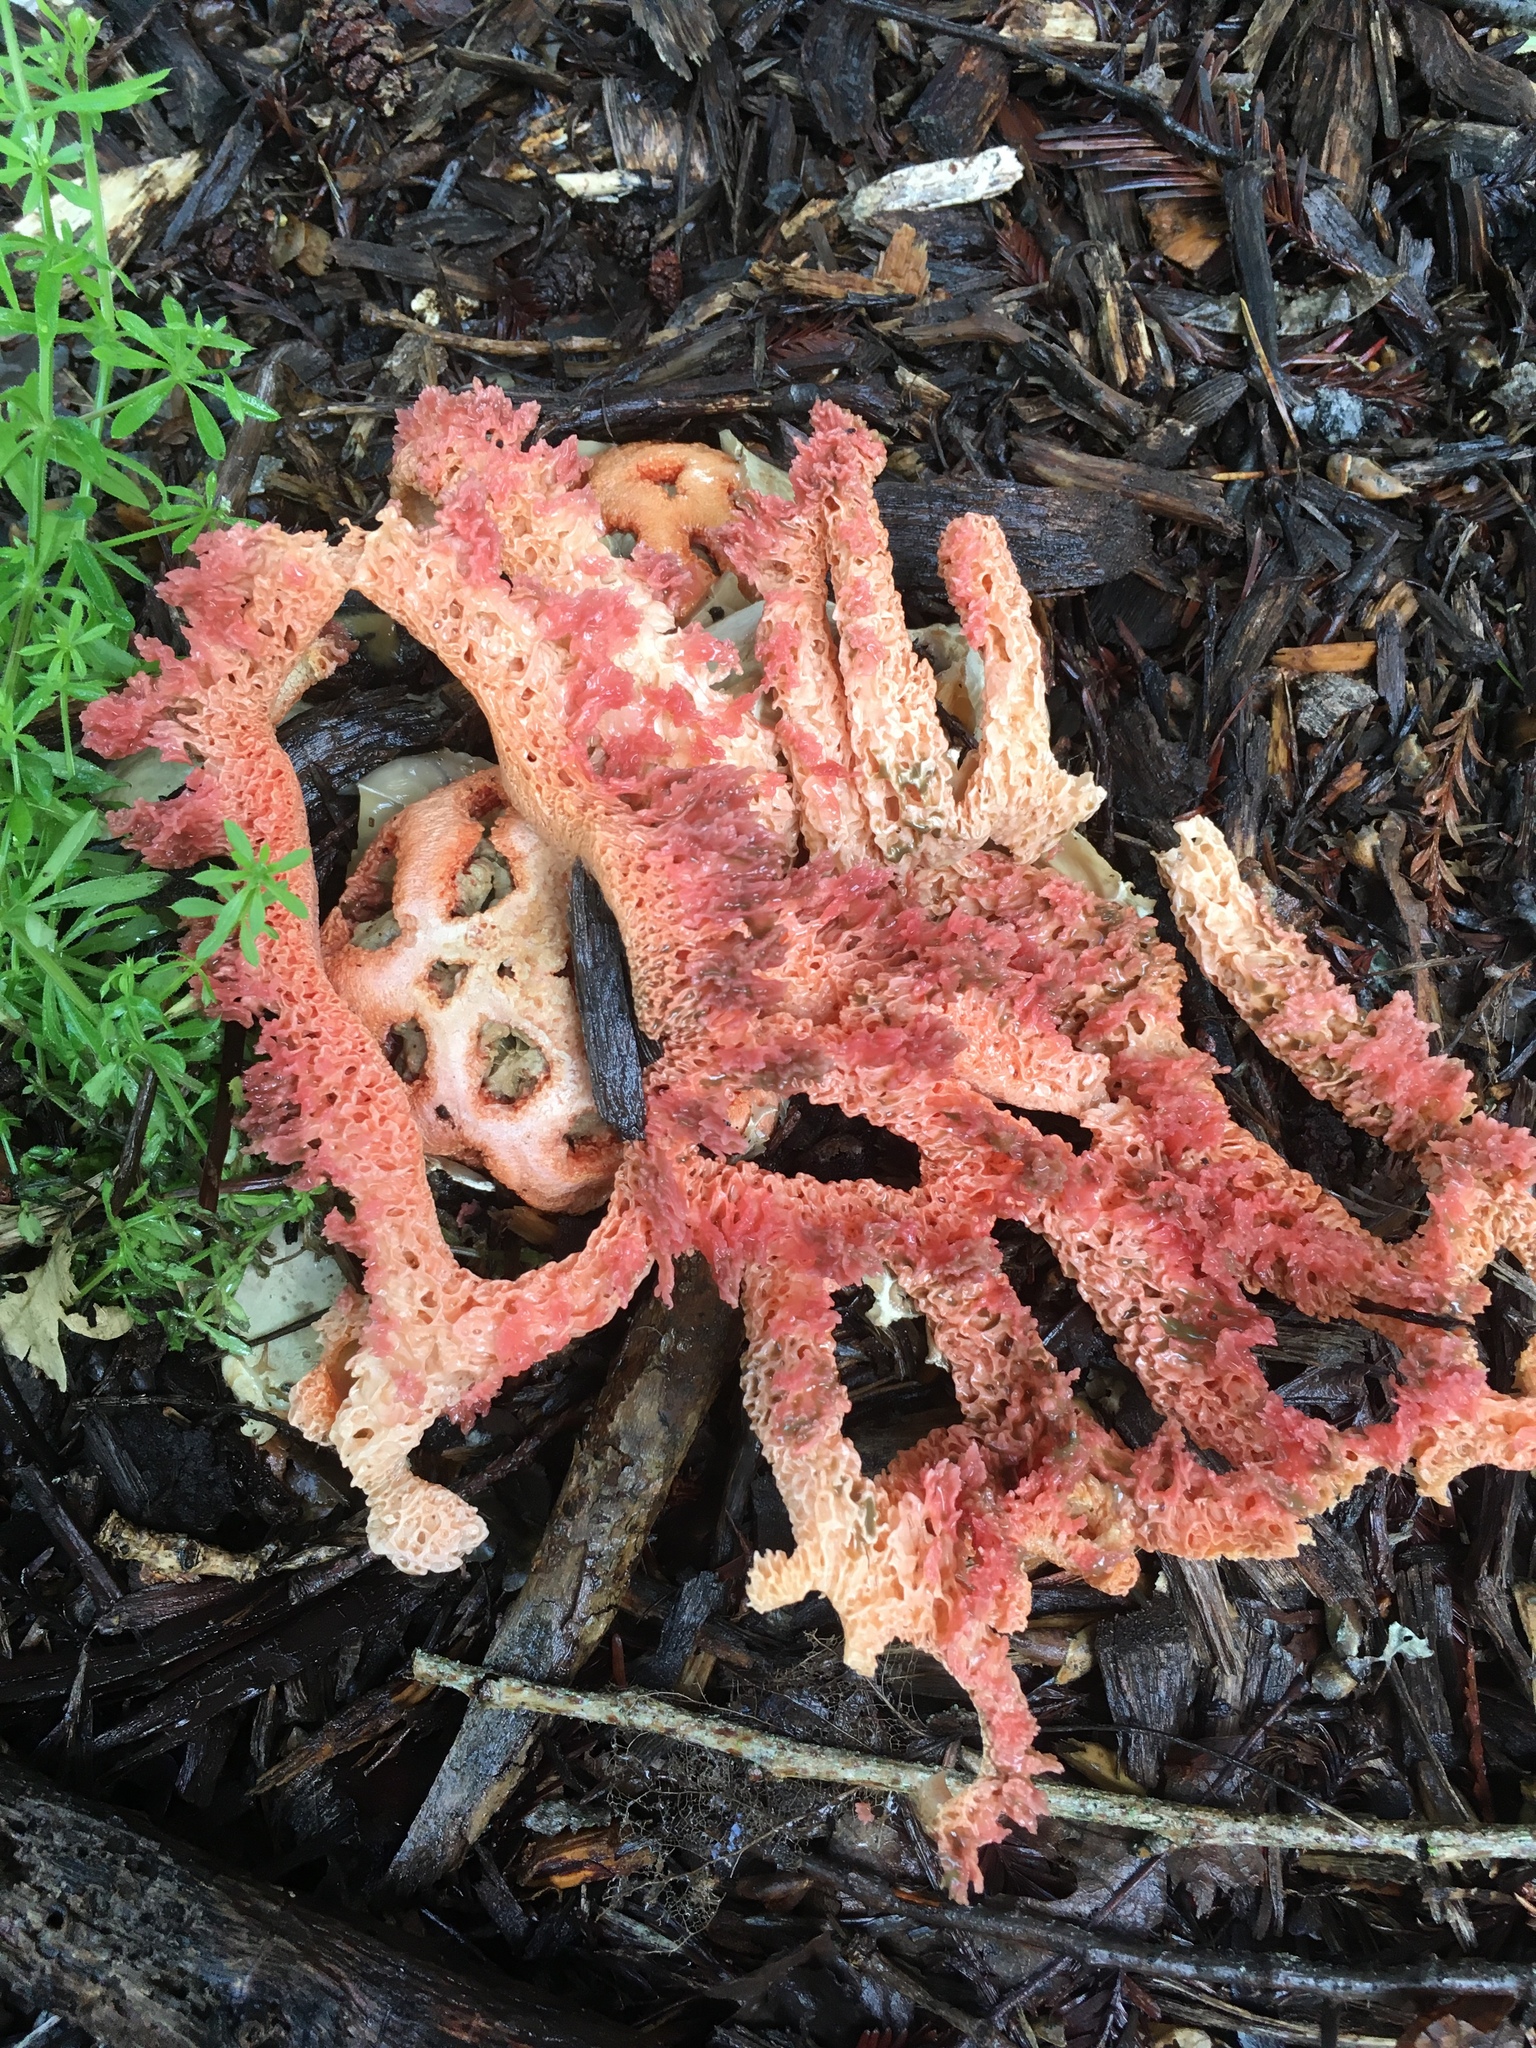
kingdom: Fungi
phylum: Basidiomycota
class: Agaricomycetes
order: Phallales
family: Phallaceae
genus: Clathrus
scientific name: Clathrus ruber
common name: Red cage
